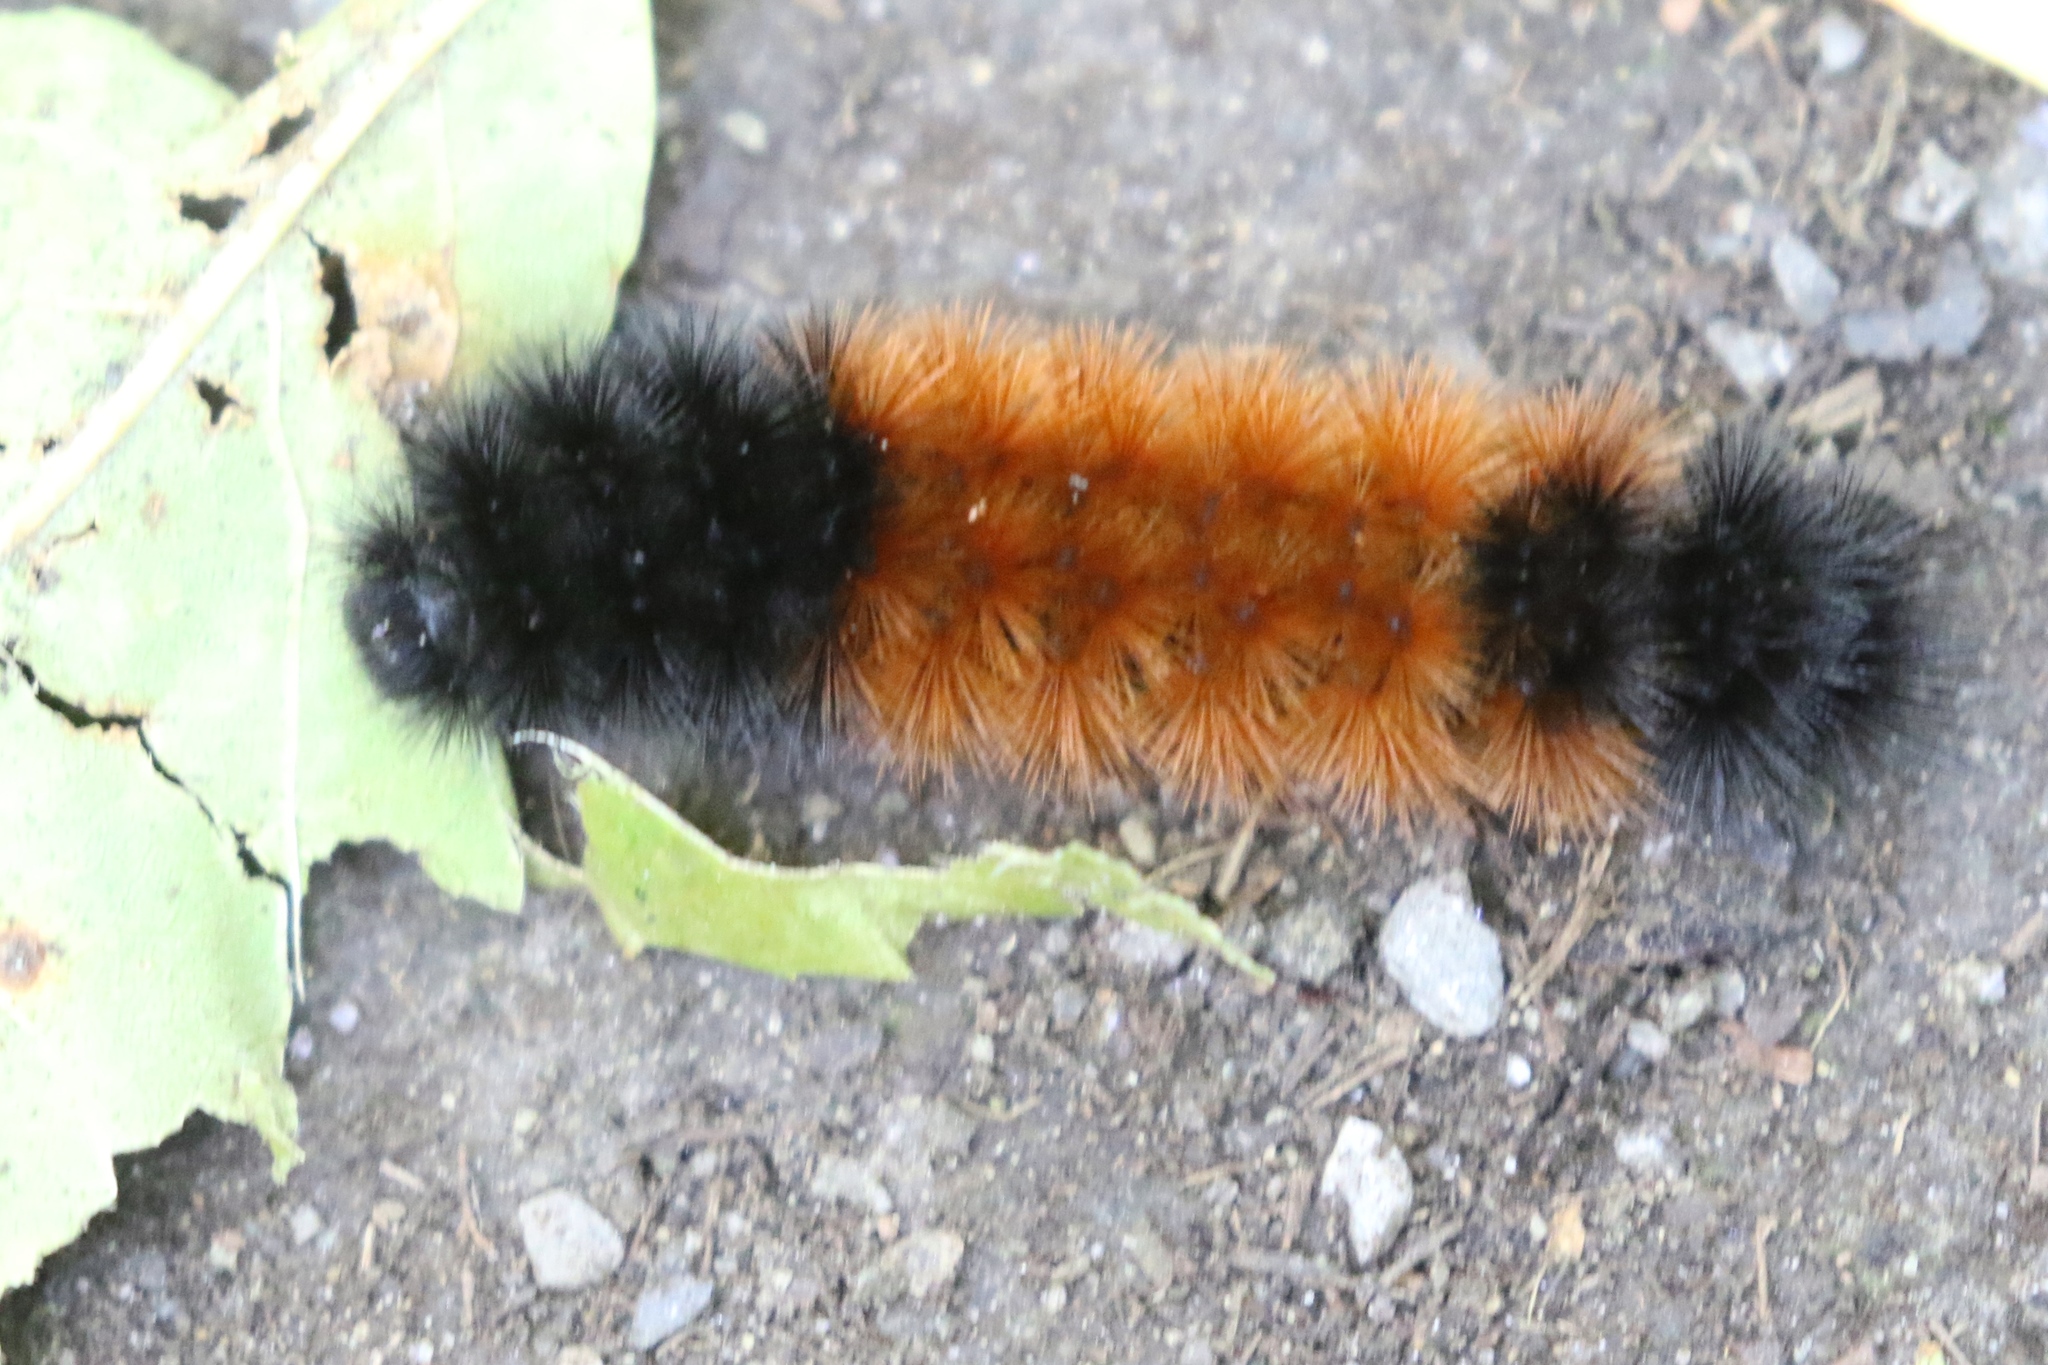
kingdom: Animalia
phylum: Arthropoda
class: Insecta
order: Lepidoptera
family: Erebidae
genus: Pyrrharctia
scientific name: Pyrrharctia isabella
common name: Isabella tiger moth
